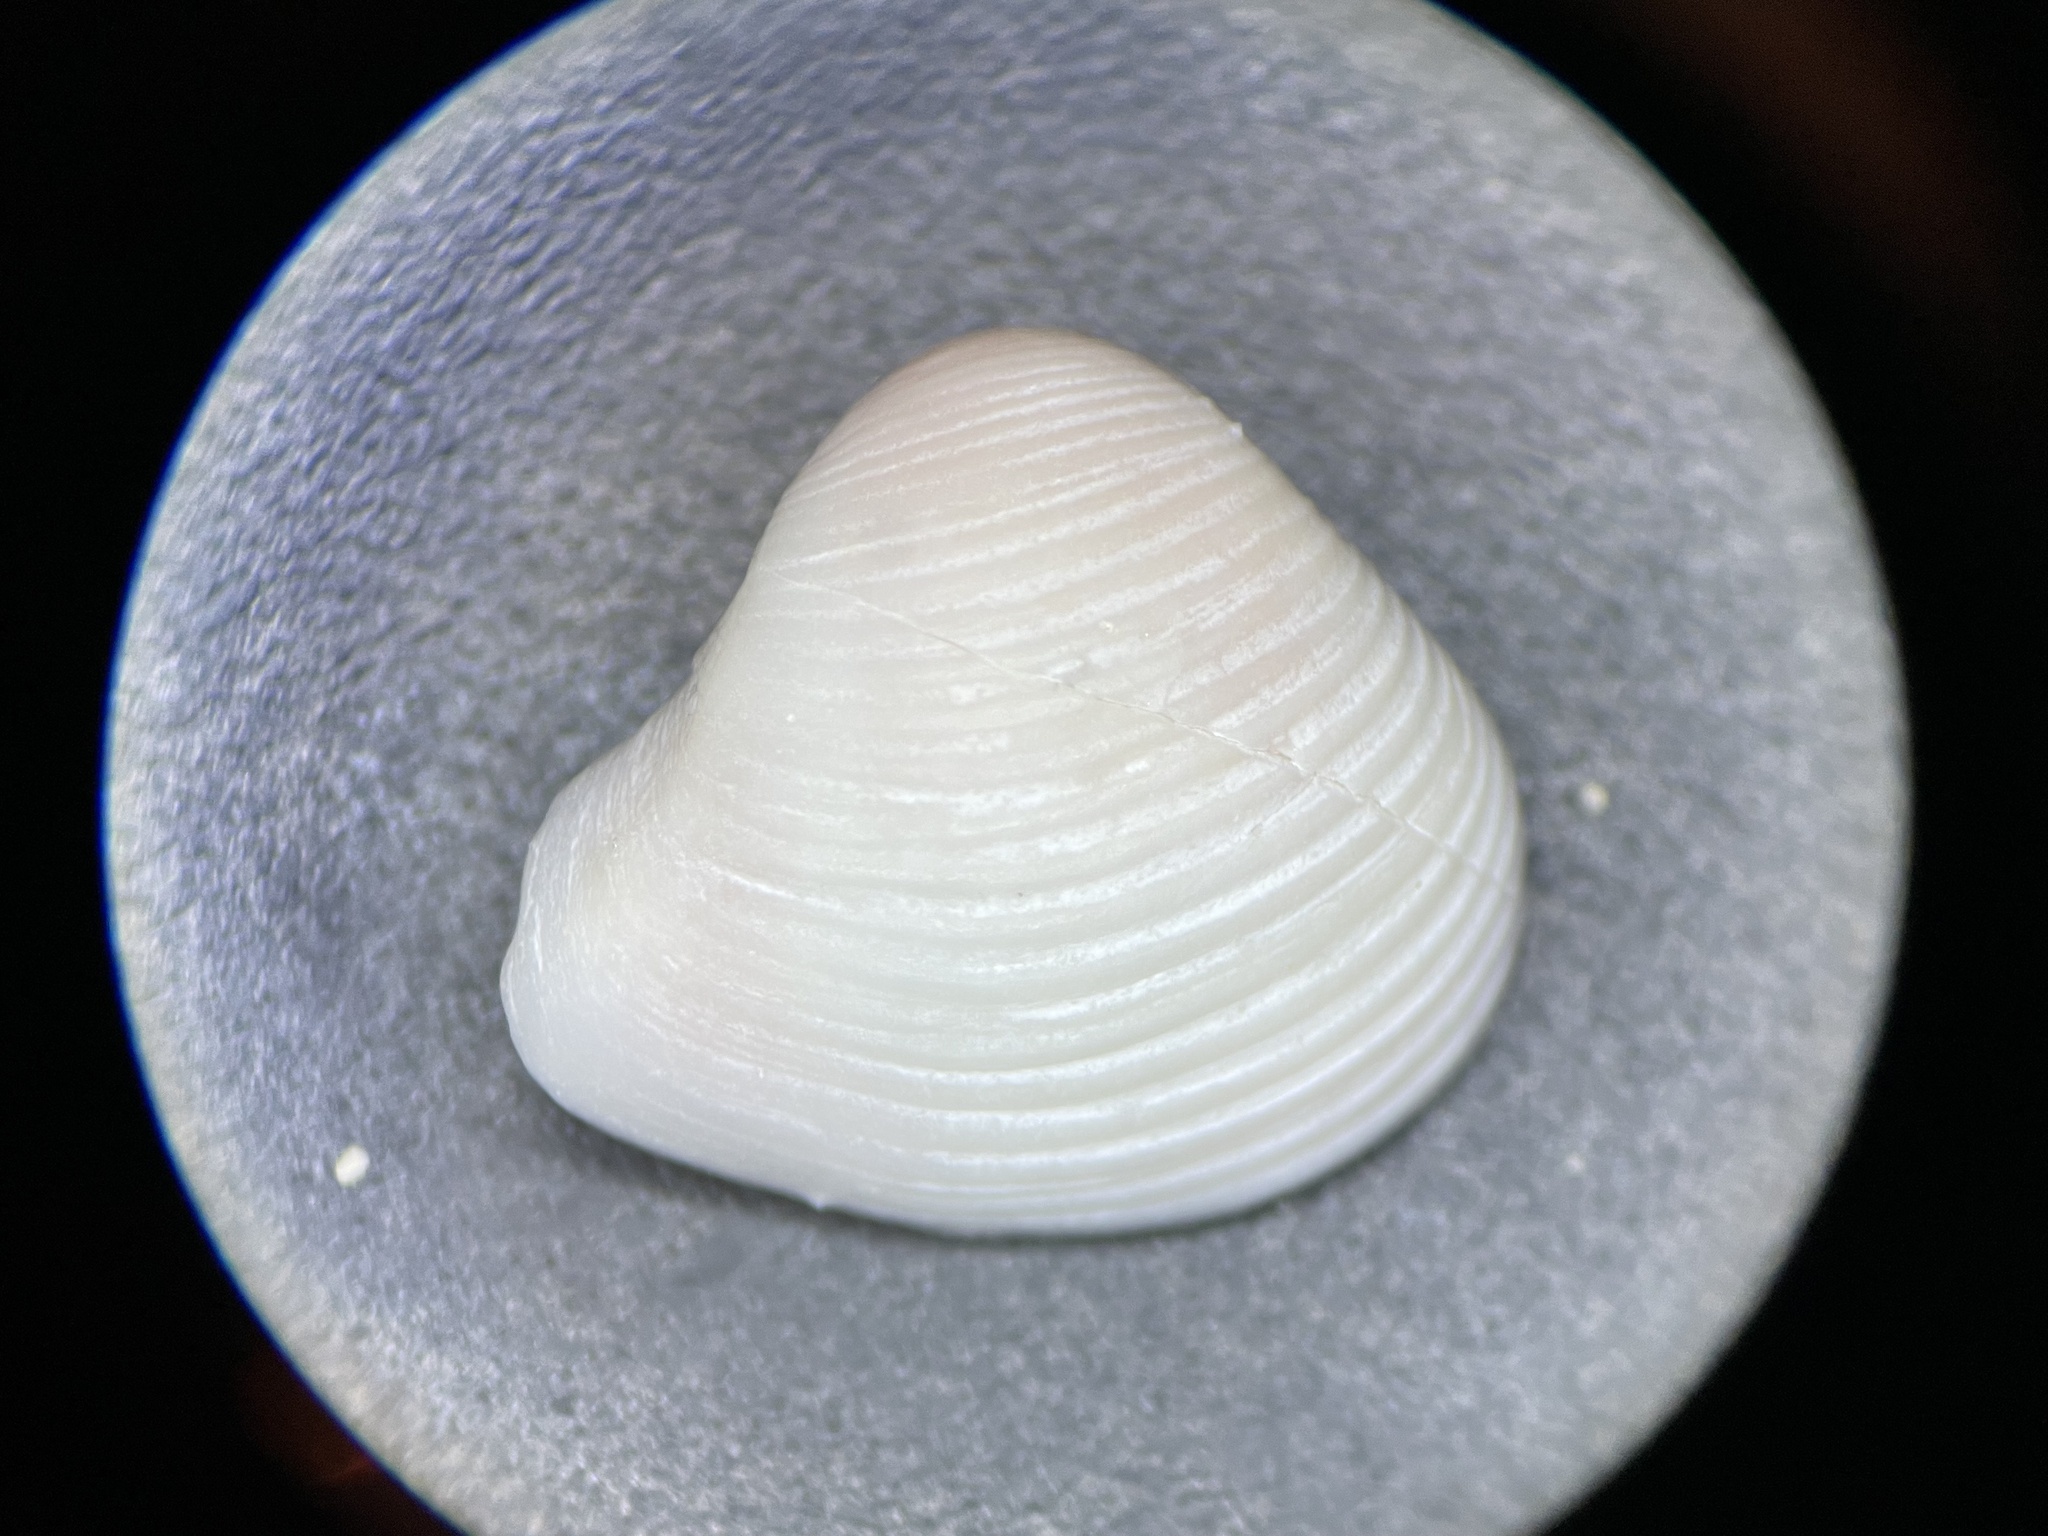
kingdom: Animalia
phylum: Mollusca
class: Bivalvia
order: Myida
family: Corbulidae
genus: Varicorbula
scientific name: Varicorbula limatula
